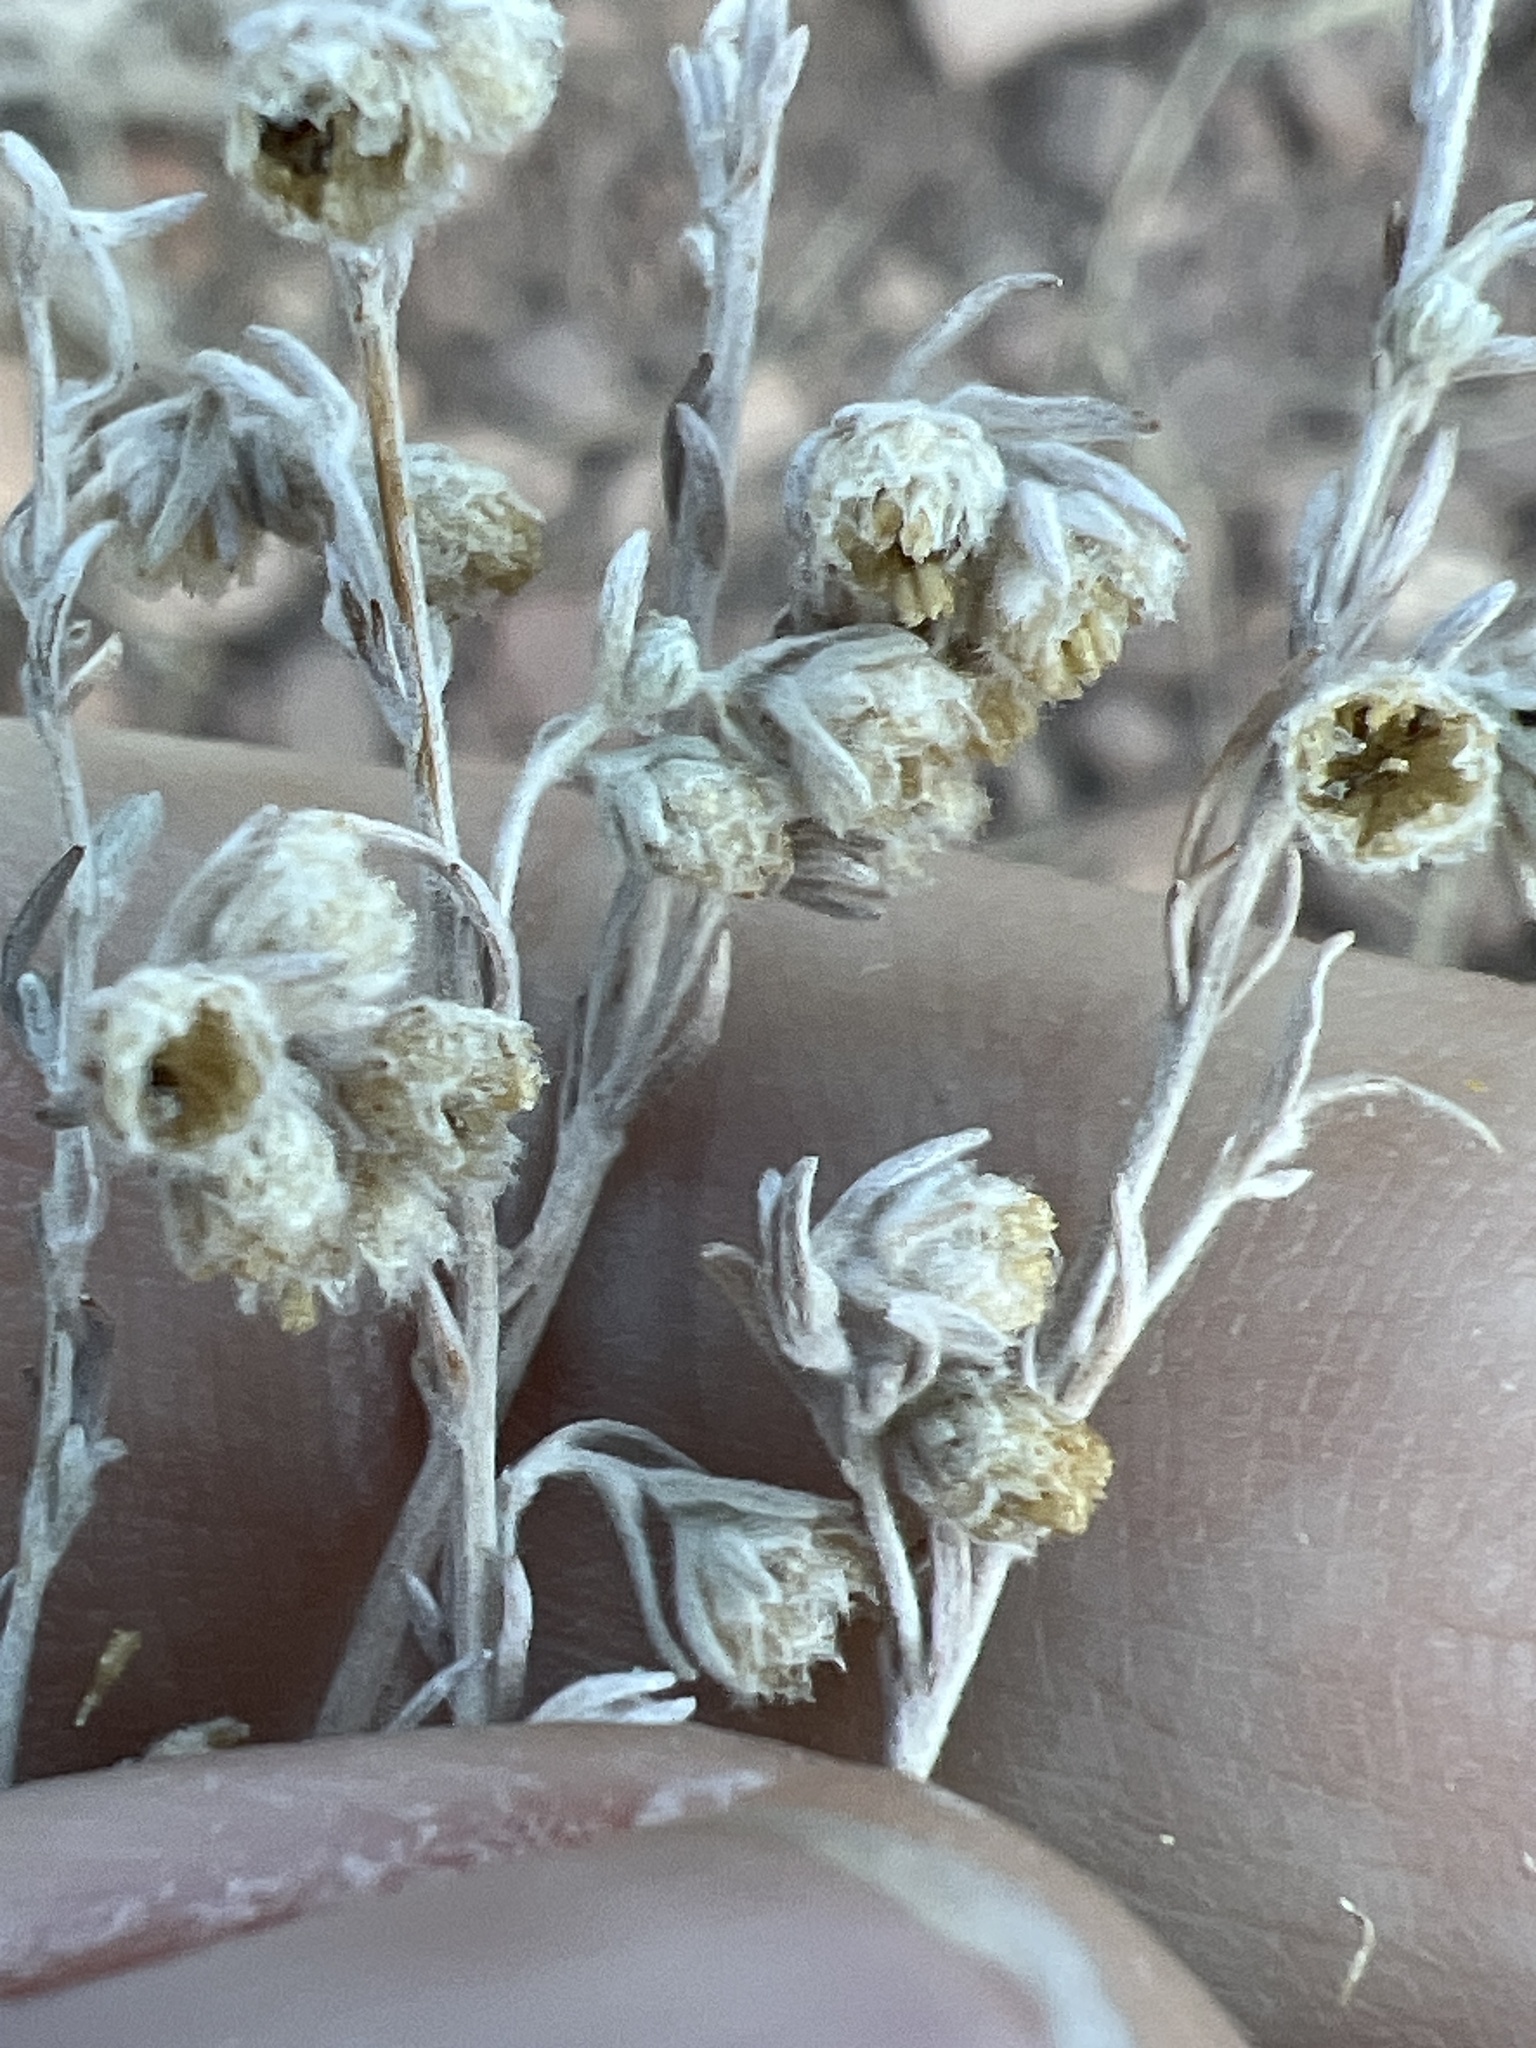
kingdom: Plantae
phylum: Tracheophyta
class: Magnoliopsida
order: Asterales
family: Asteraceae
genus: Artemisia
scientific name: Artemisia frigida
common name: Prairie sagewort
